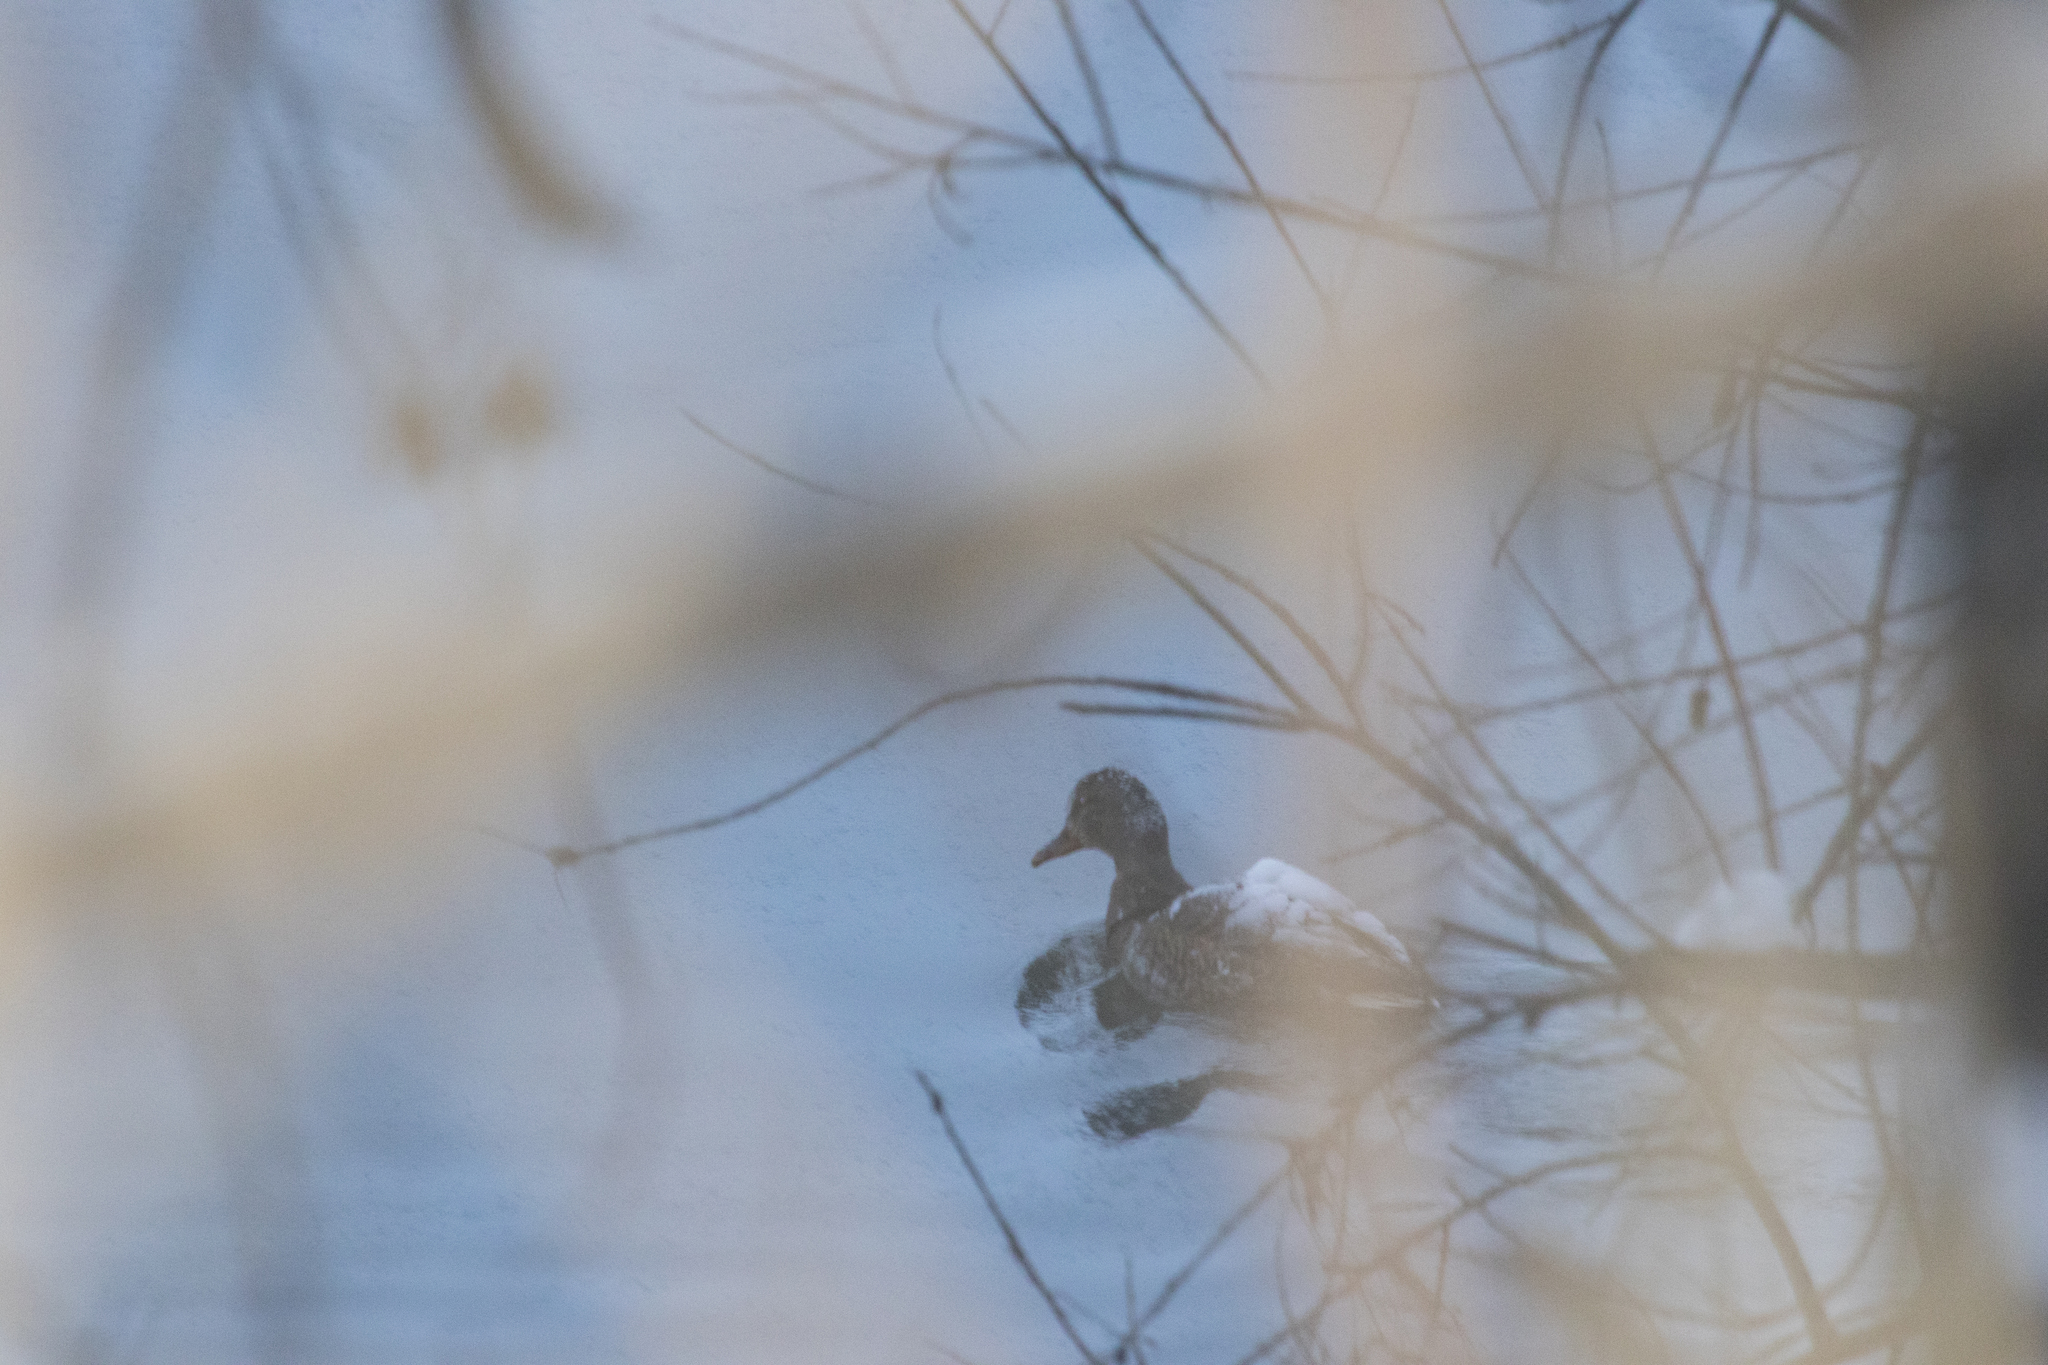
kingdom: Animalia
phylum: Chordata
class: Aves
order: Anseriformes
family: Anatidae
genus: Anas
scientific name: Anas platyrhynchos
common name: Mallard
